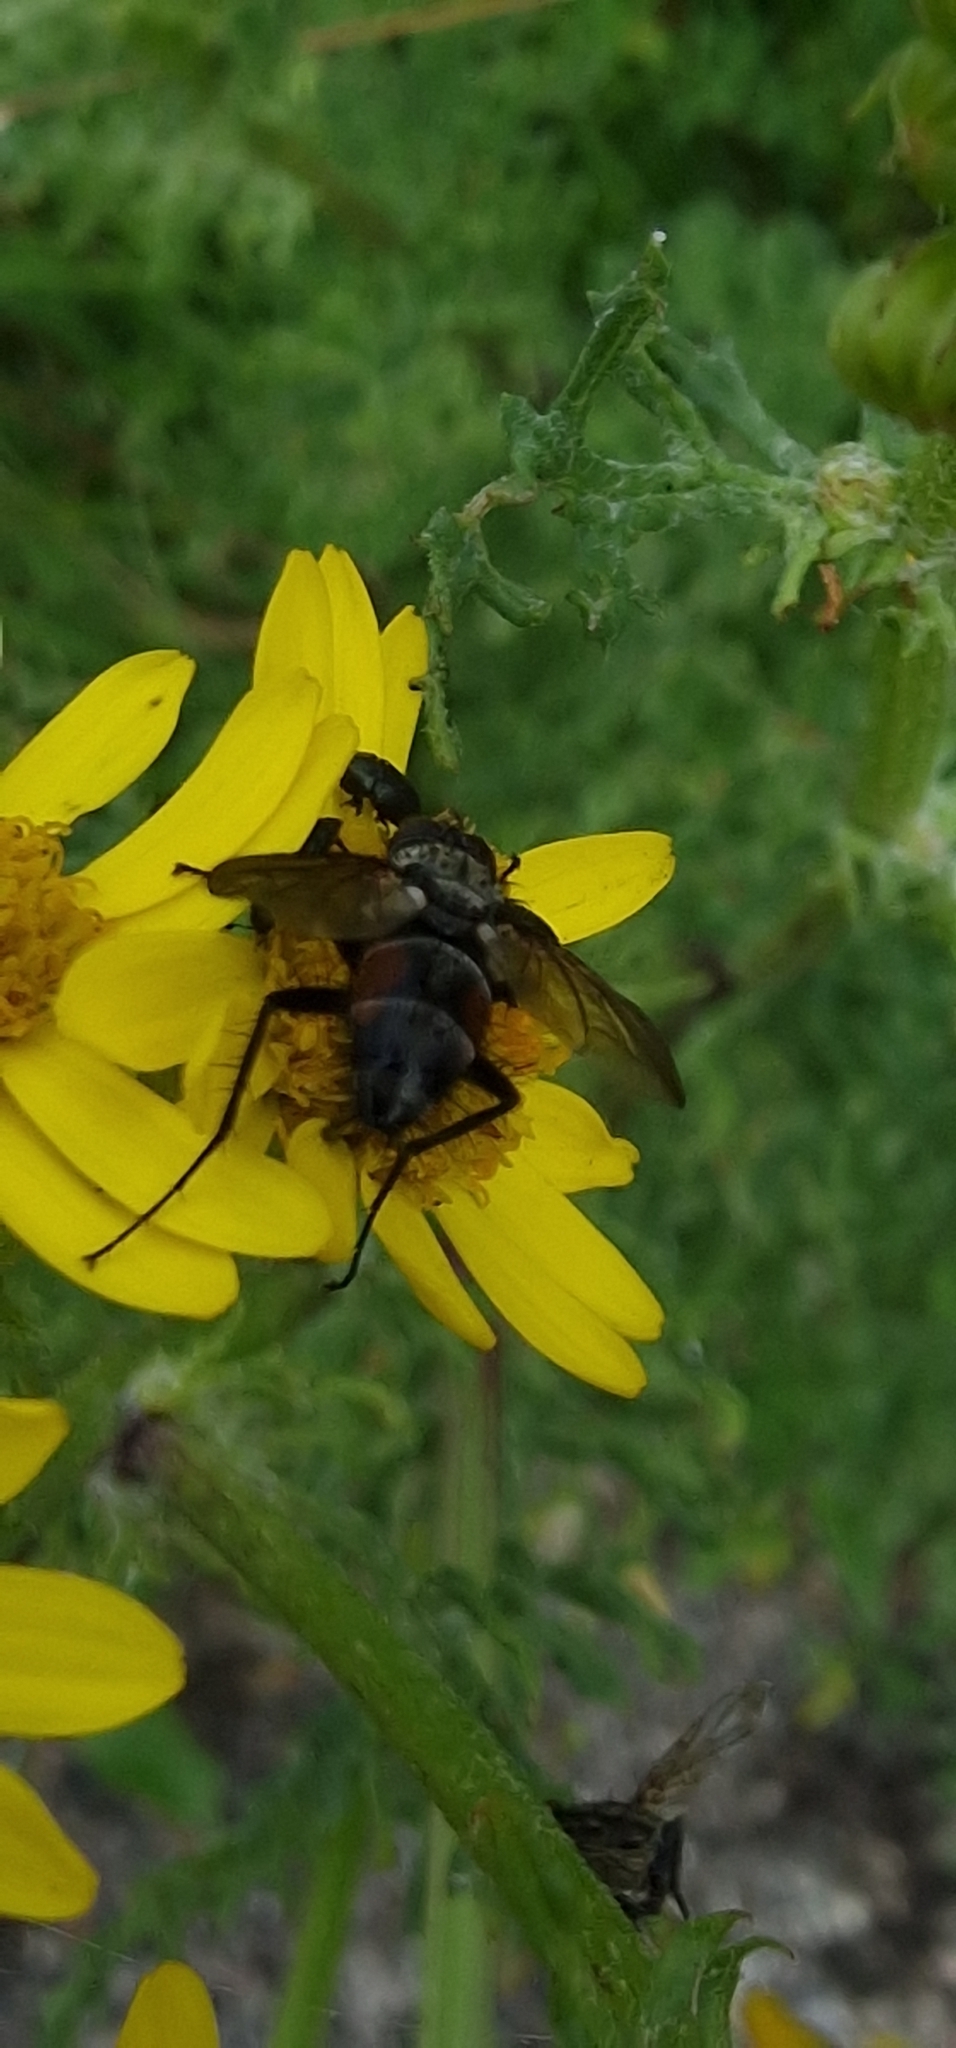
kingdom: Animalia
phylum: Arthropoda
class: Insecta
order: Diptera
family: Tachinidae
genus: Eriothrix
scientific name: Eriothrix rufomaculatus
